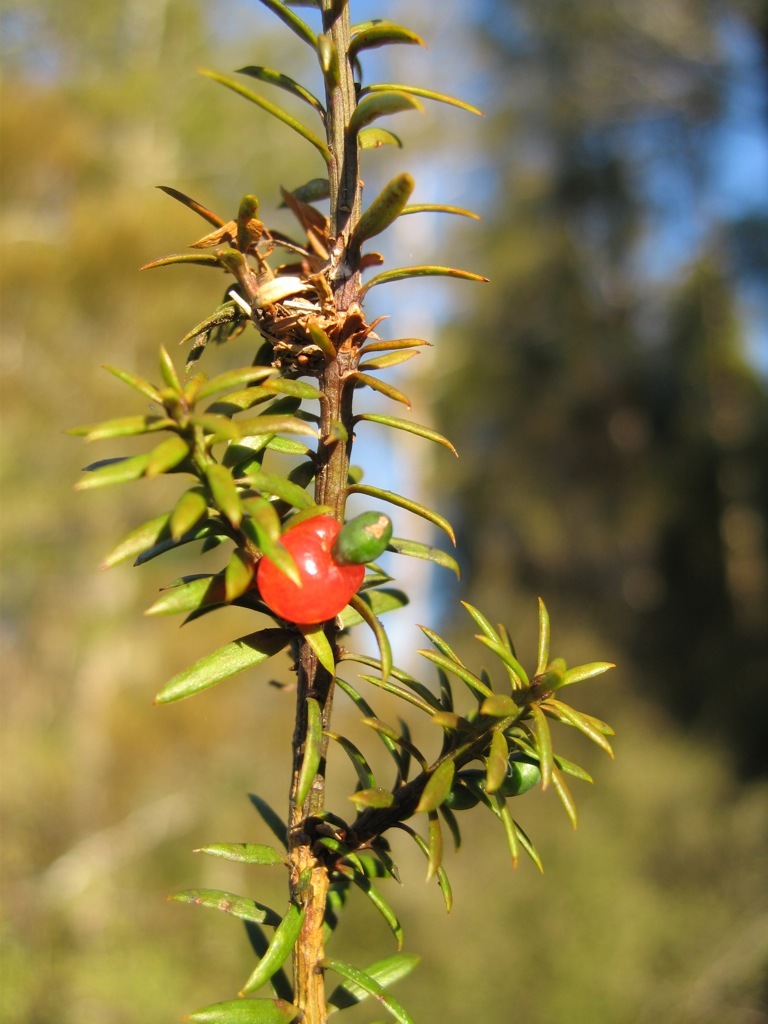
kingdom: Plantae
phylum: Tracheophyta
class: Pinopsida
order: Pinales
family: Podocarpaceae
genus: Podocarpus
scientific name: Podocarpus acutifolius
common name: Needle-leaved totara
